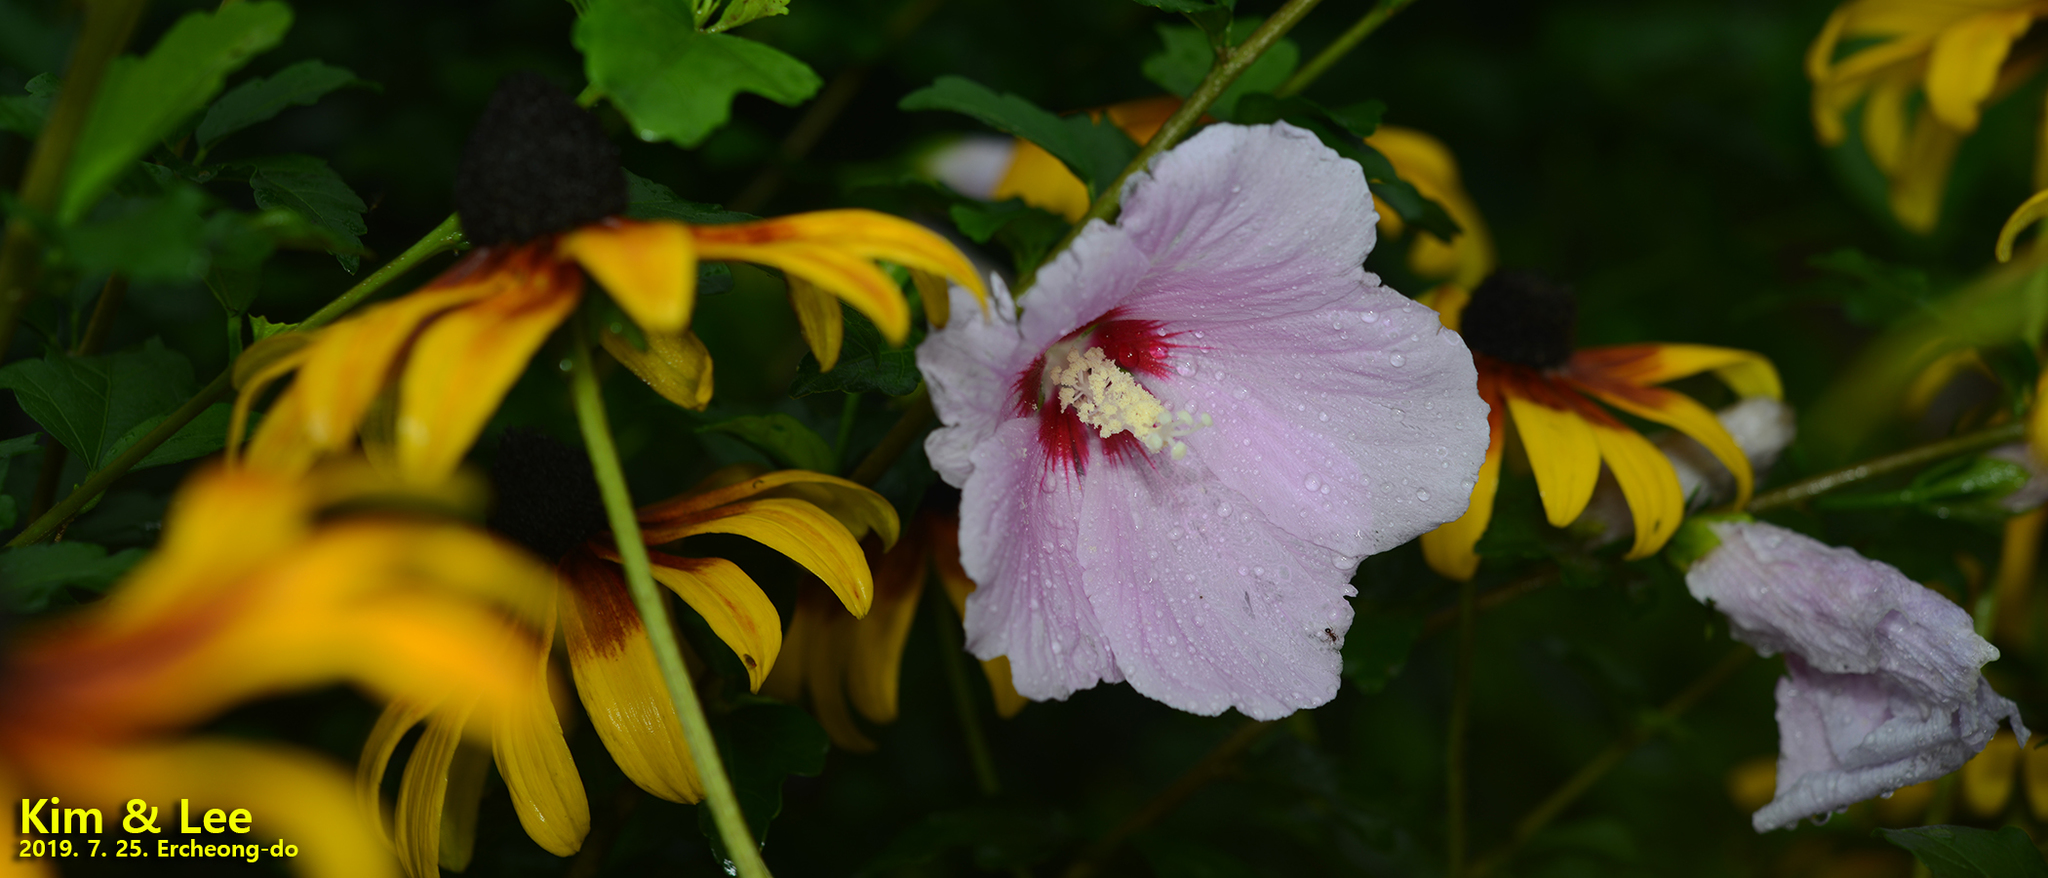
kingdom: Plantae
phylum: Tracheophyta
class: Magnoliopsida
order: Malvales
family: Malvaceae
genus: Hibiscus
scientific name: Hibiscus syriacus
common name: Syrian ketmia
